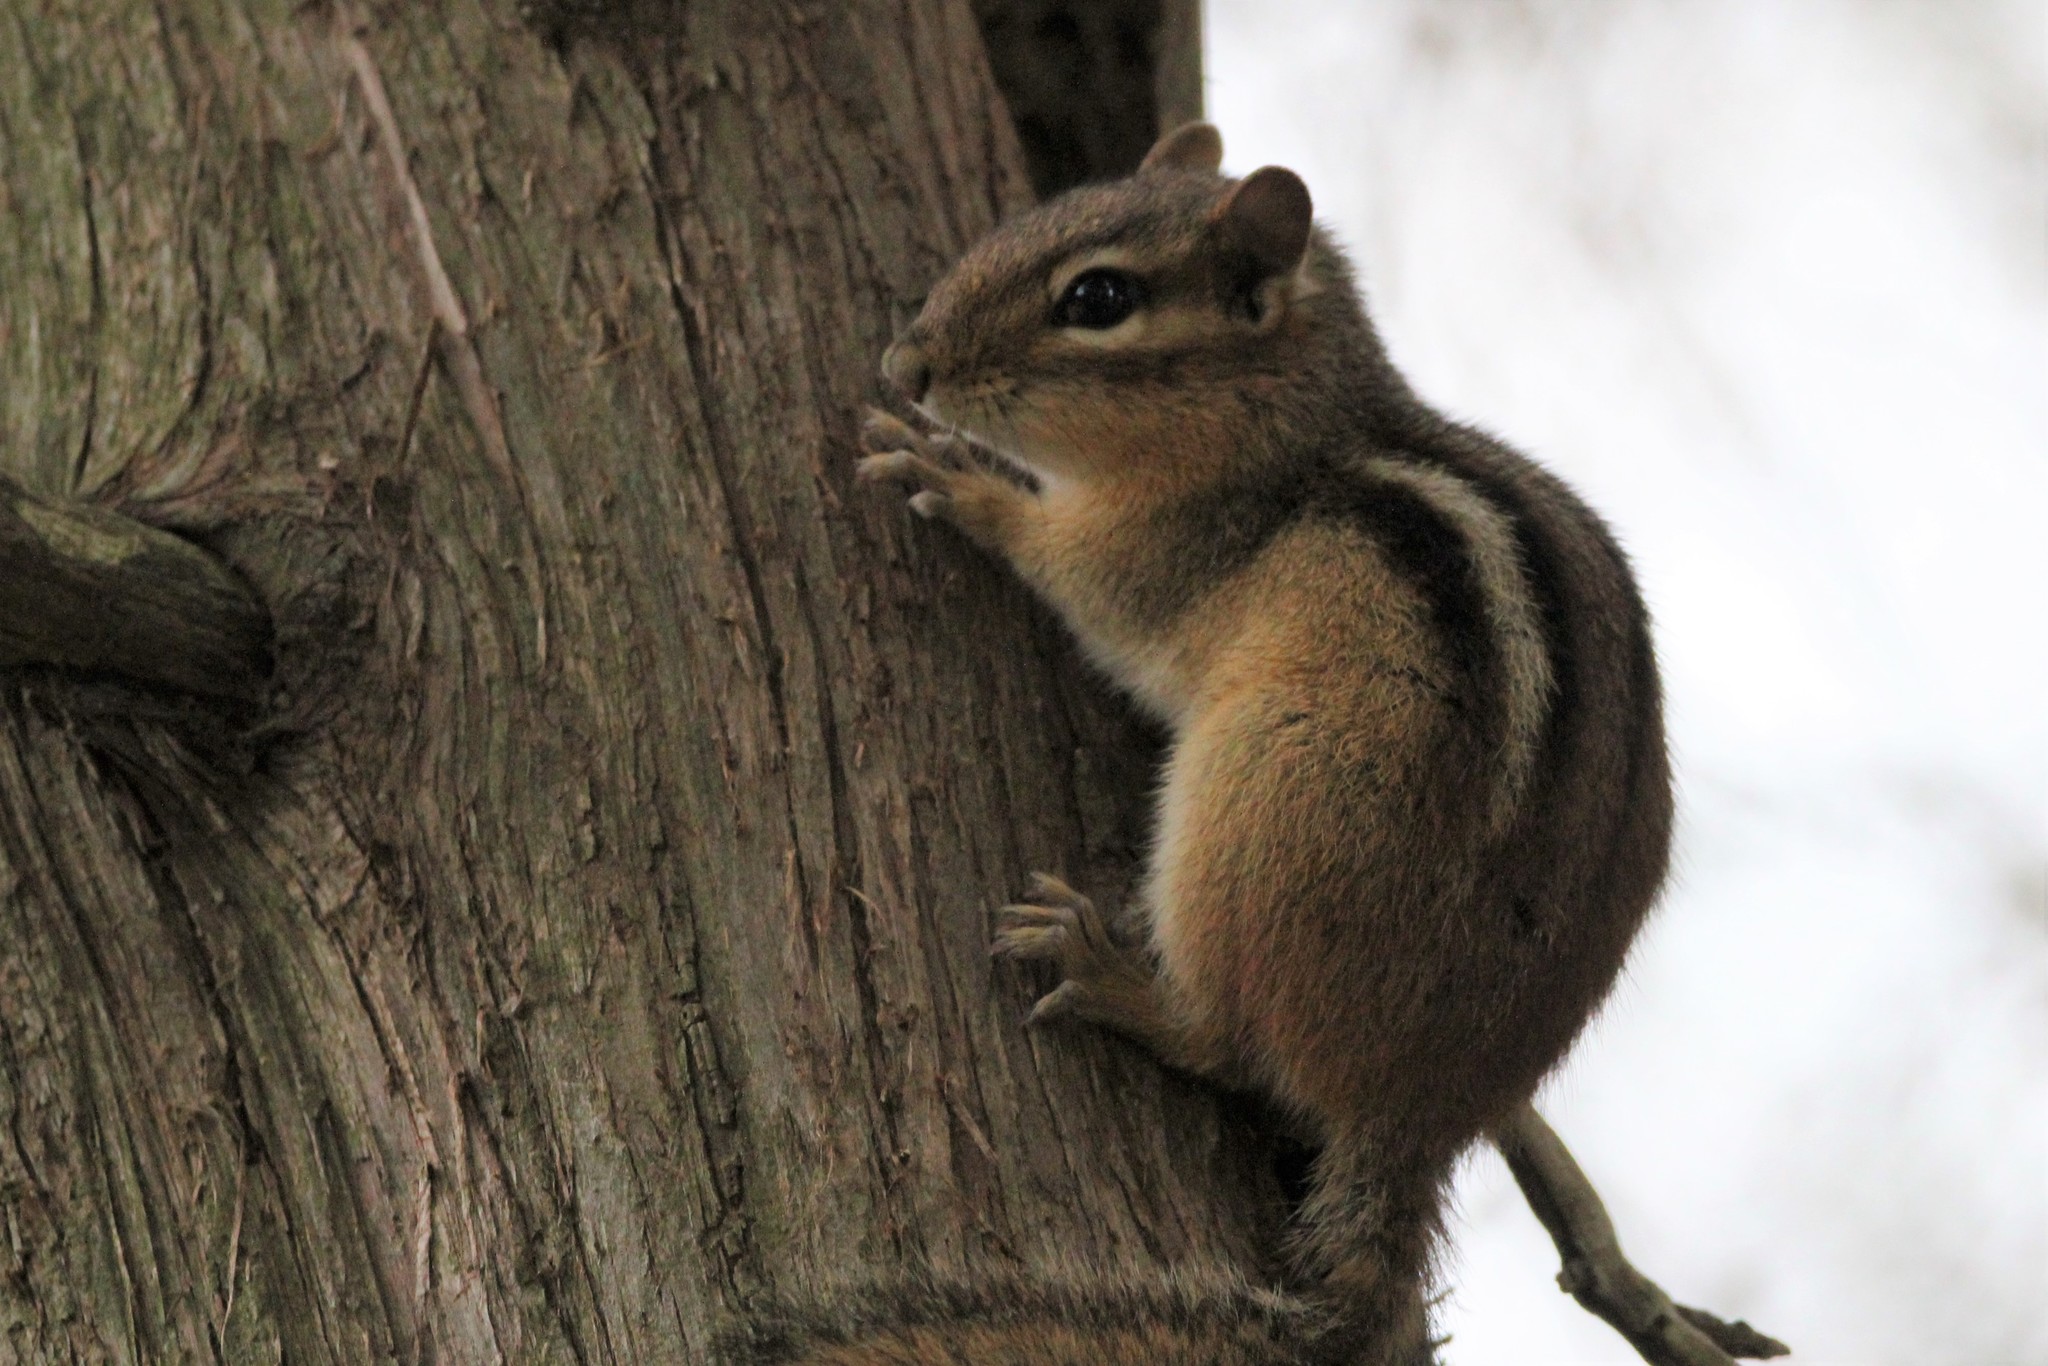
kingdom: Animalia
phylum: Chordata
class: Mammalia
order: Rodentia
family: Sciuridae
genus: Tamias
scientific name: Tamias striatus
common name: Eastern chipmunk
